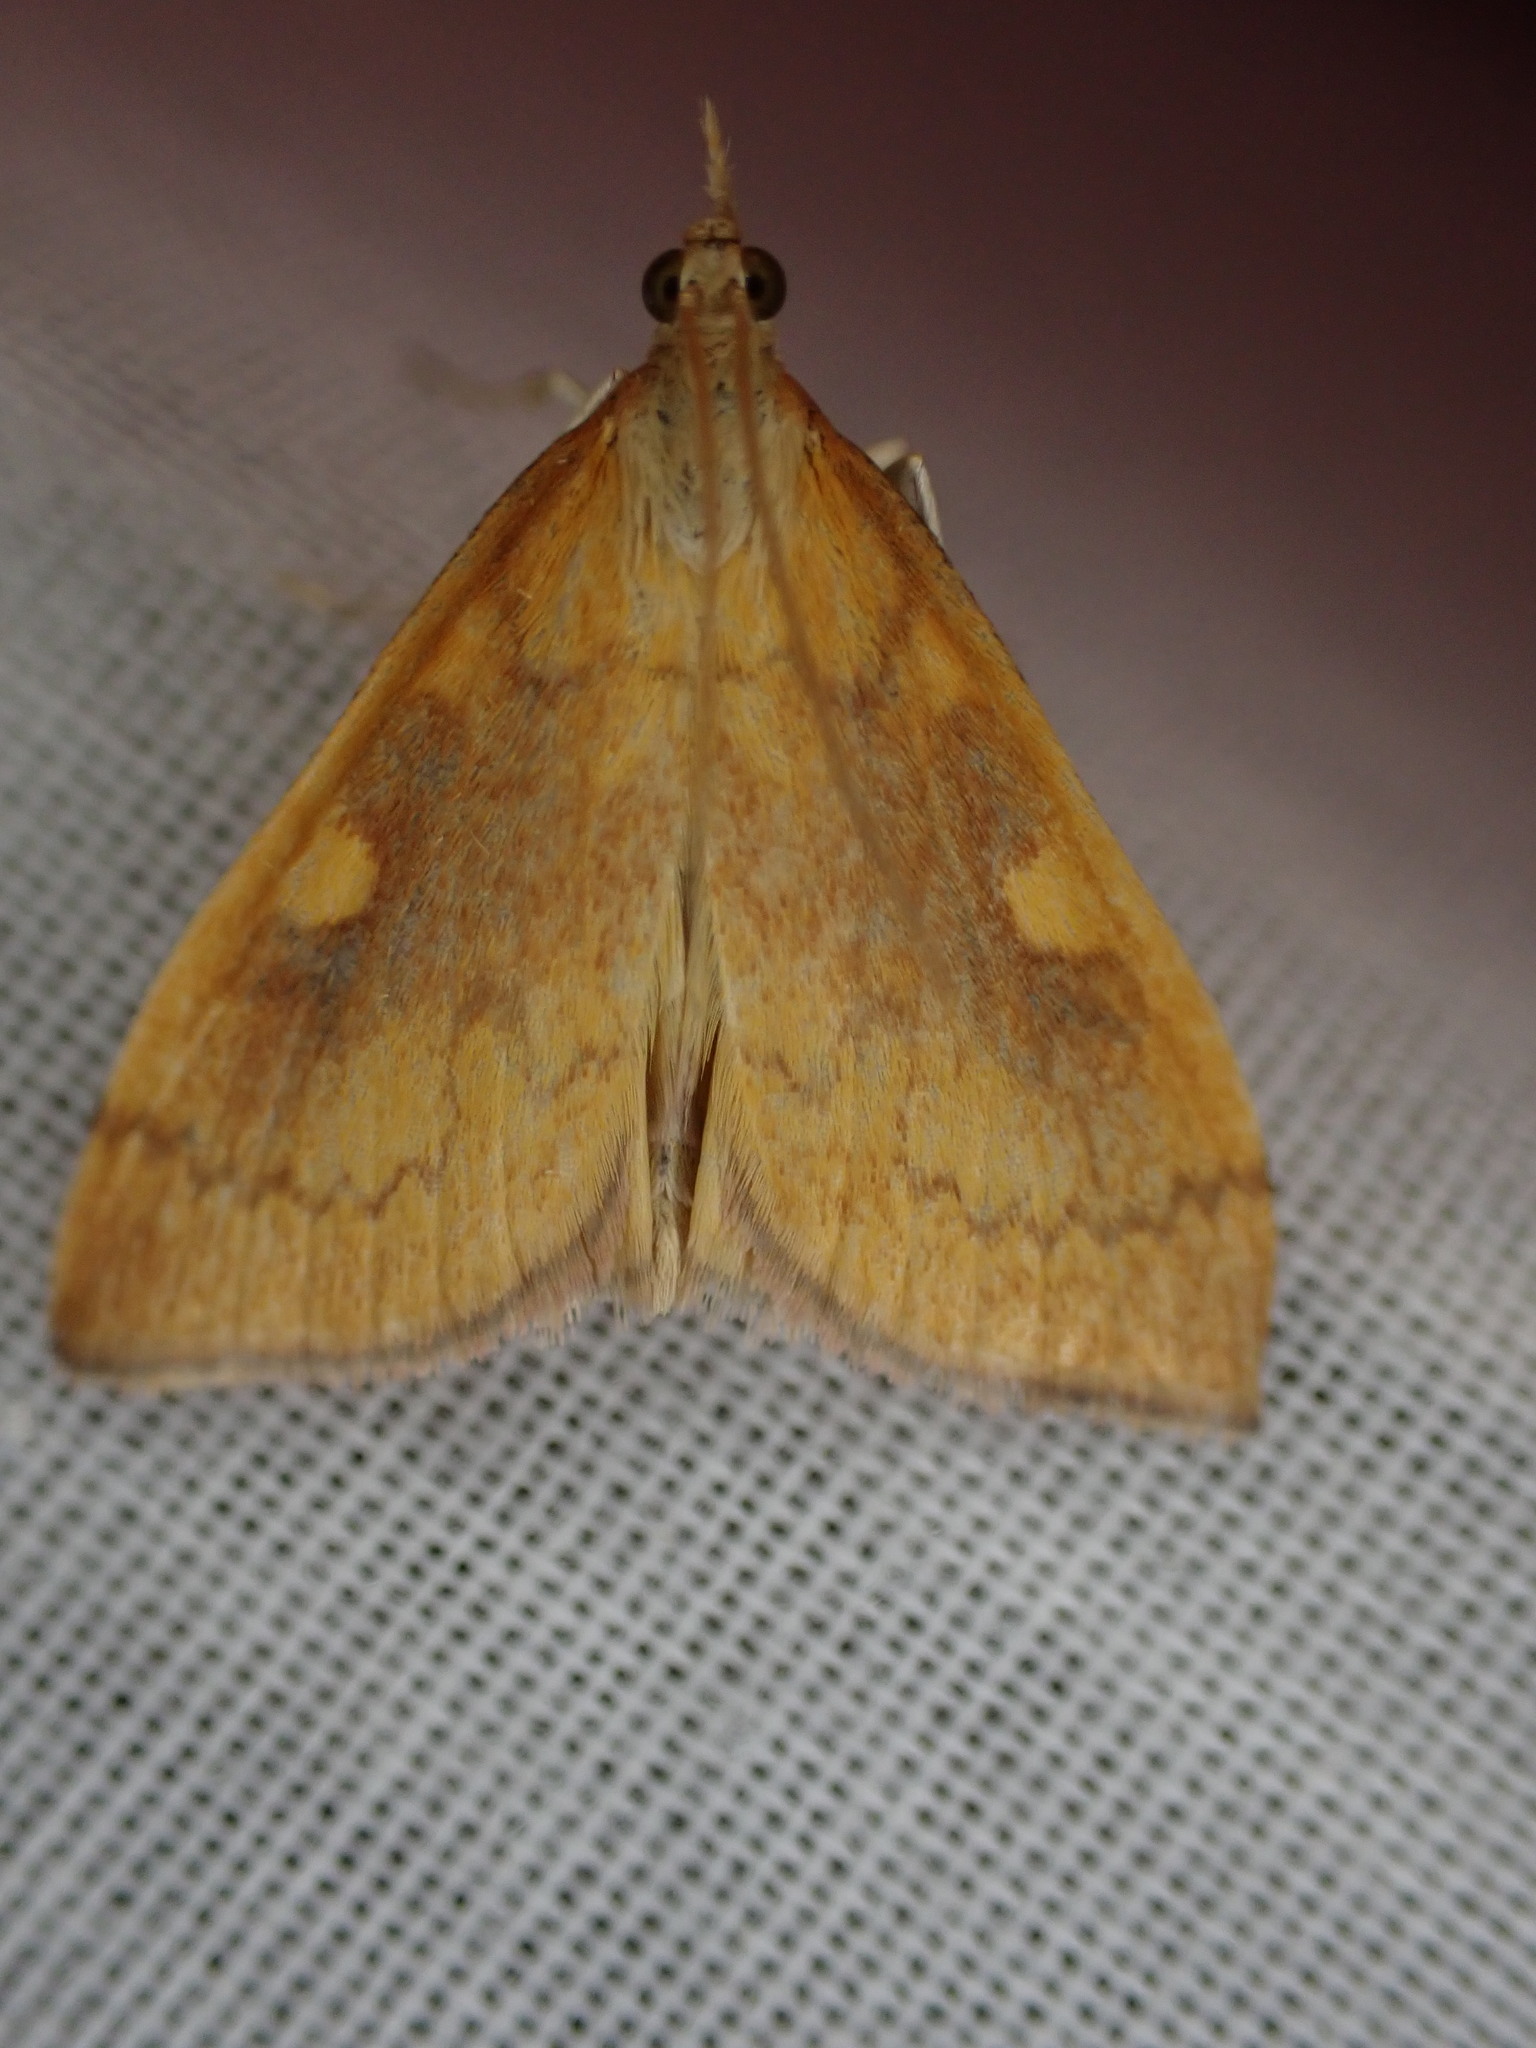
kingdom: Animalia
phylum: Arthropoda
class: Insecta
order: Lepidoptera
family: Crambidae
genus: Udea
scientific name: Udea Mnesictena flavidalis
